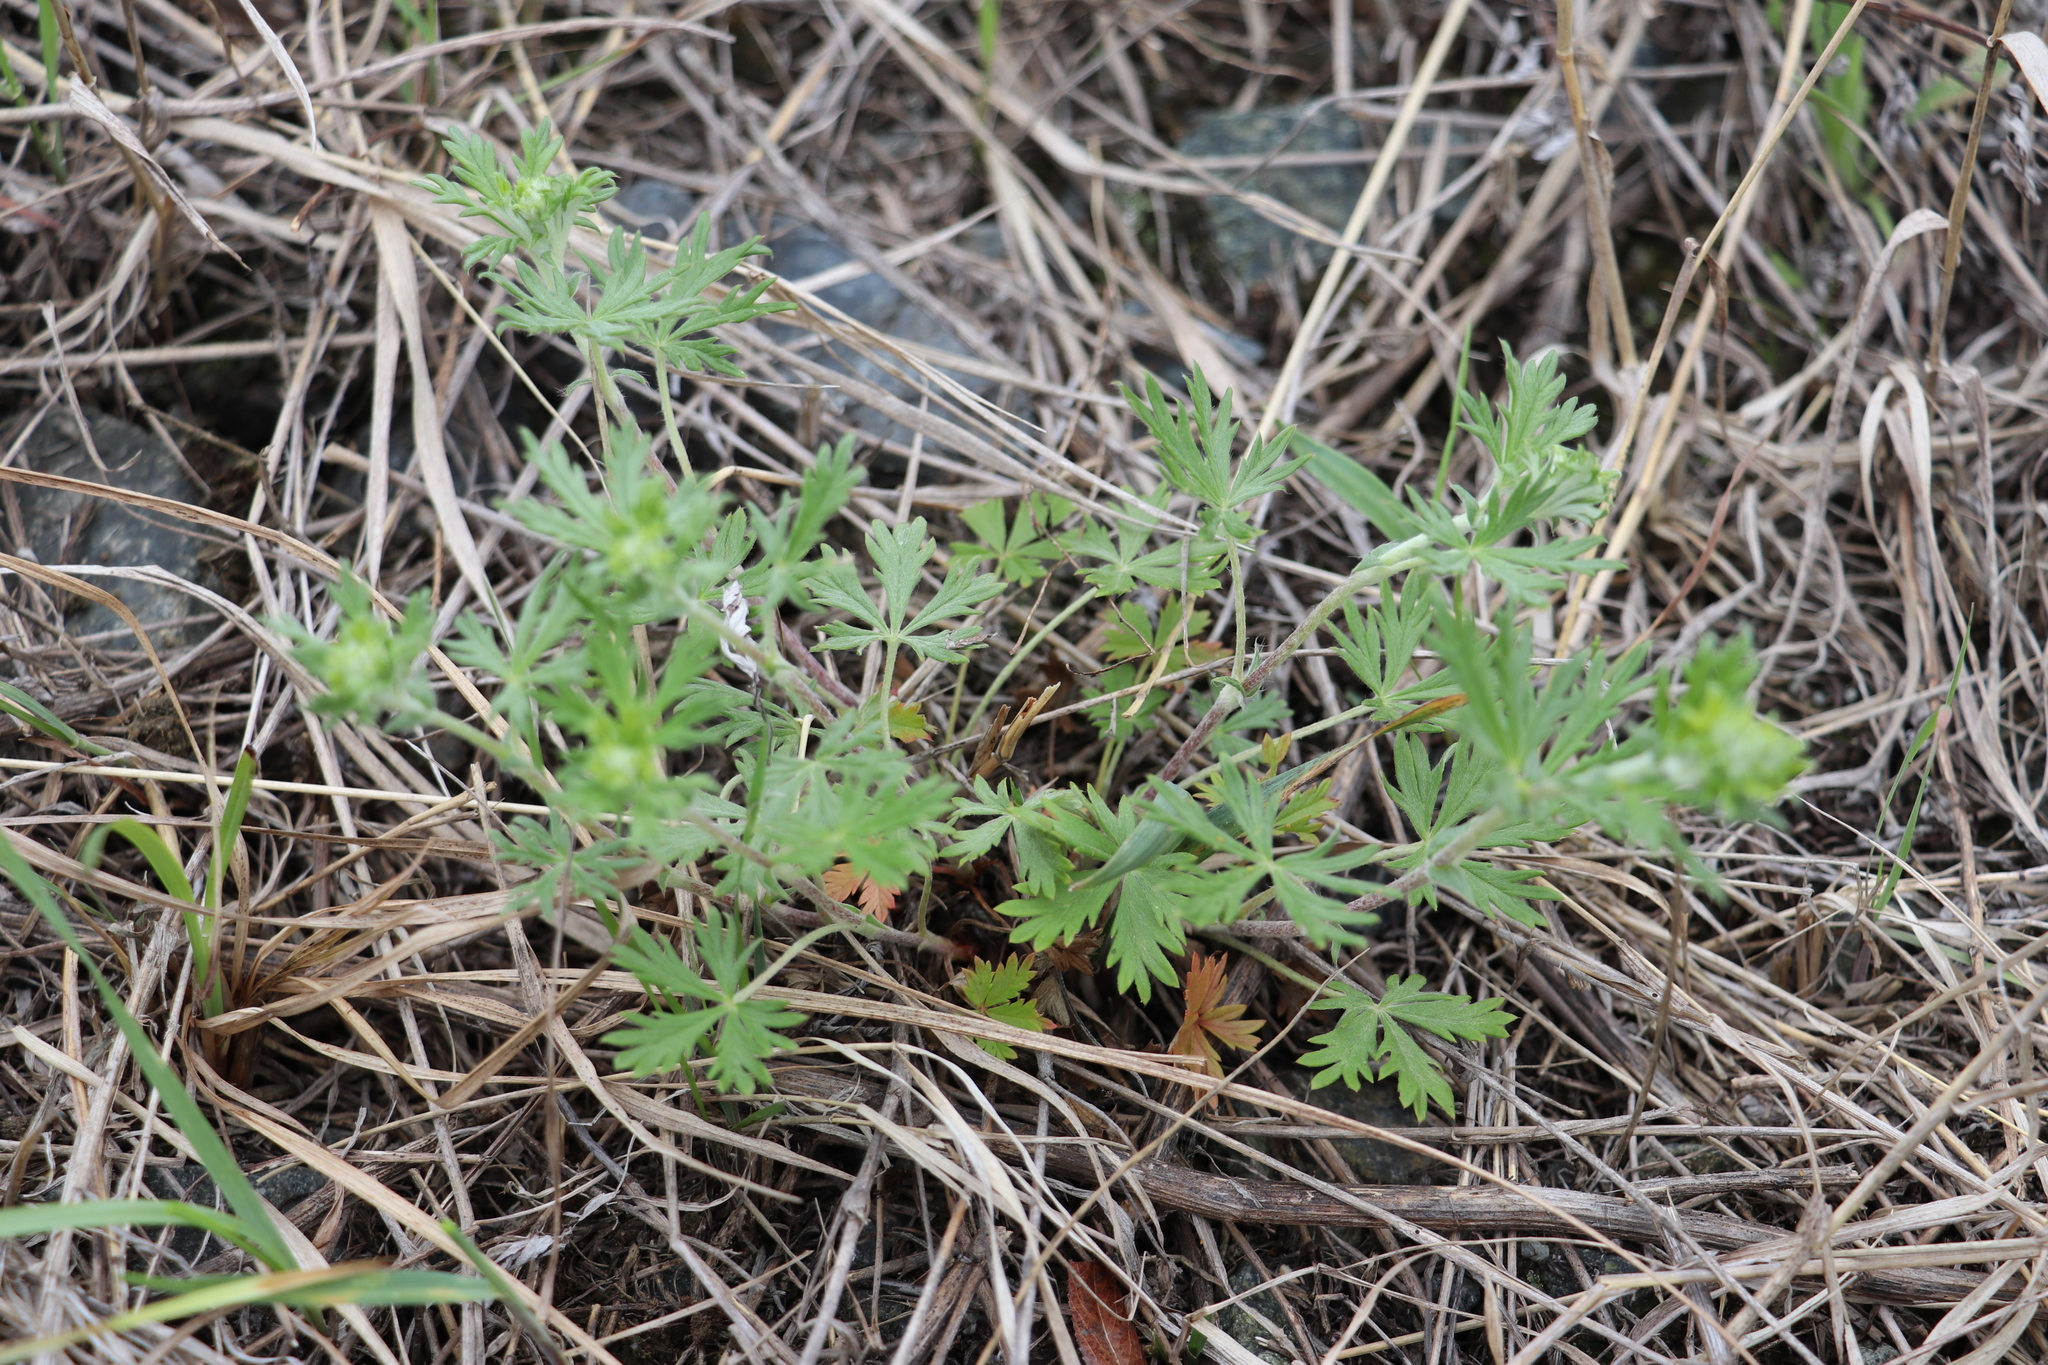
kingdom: Plantae
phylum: Tracheophyta
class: Magnoliopsida
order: Rosales
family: Rosaceae
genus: Potentilla
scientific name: Potentilla argentea
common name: Hoary cinquefoil
